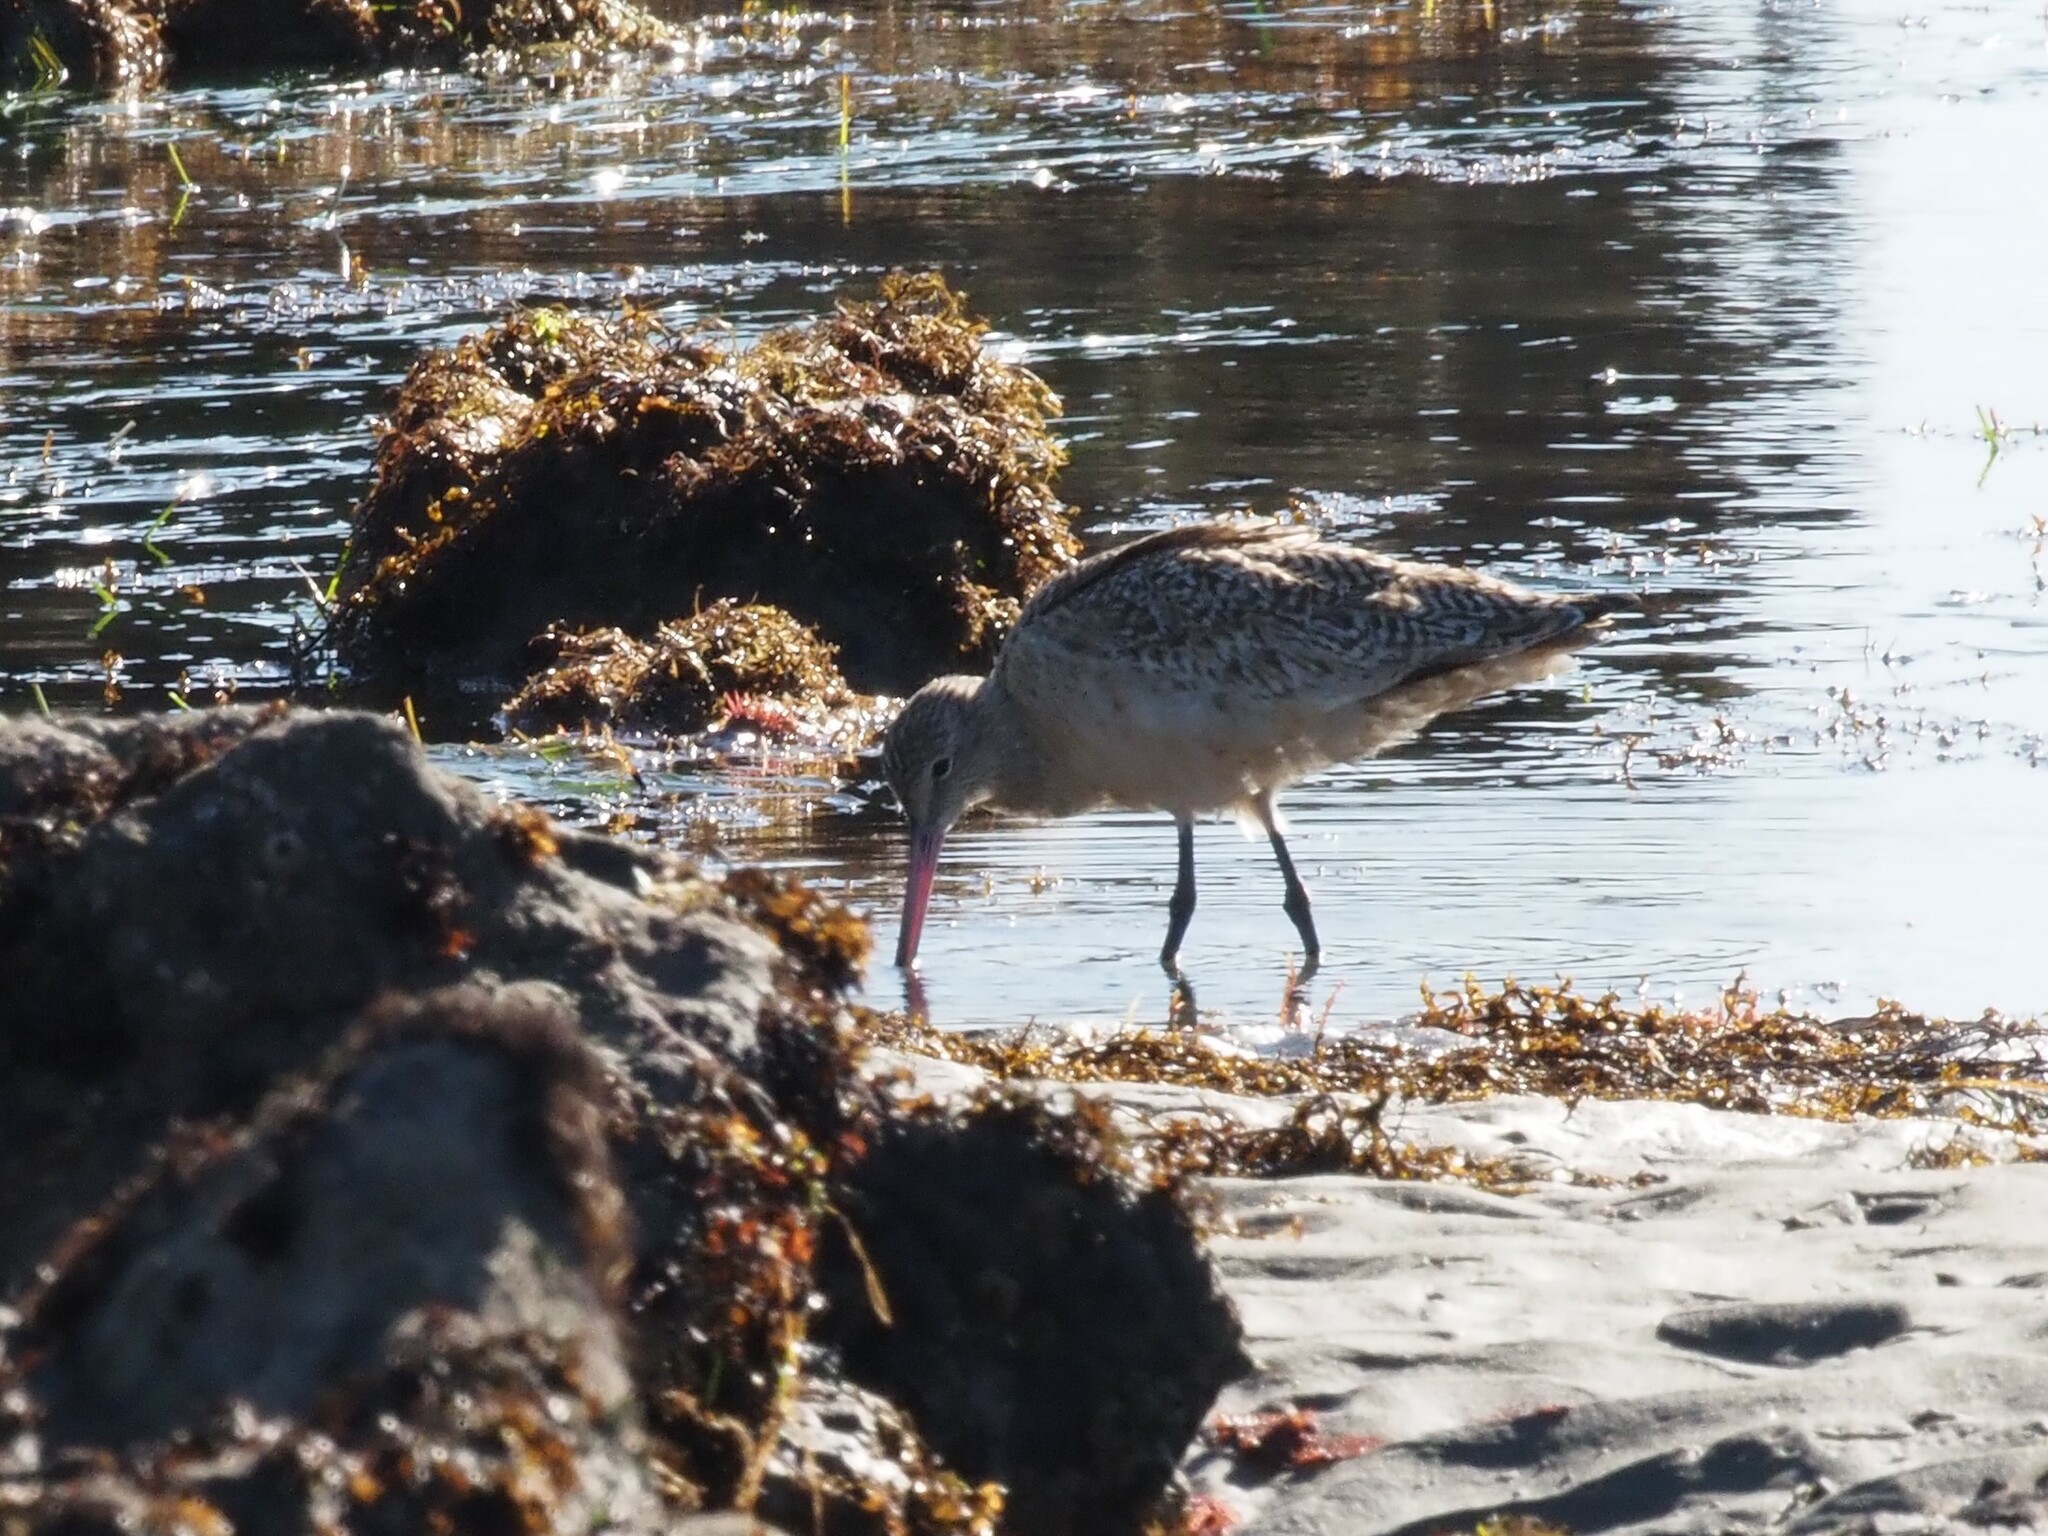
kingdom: Animalia
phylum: Chordata
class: Aves
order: Charadriiformes
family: Scolopacidae
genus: Limosa
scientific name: Limosa fedoa
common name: Marbled godwit
